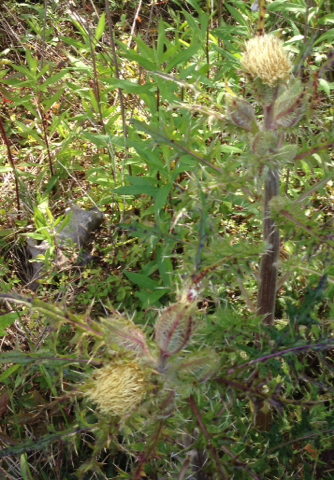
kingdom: Plantae
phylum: Tracheophyta
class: Magnoliopsida
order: Asterales
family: Asteraceae
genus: Cirsium
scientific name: Cirsium horridulum
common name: Bristly thistle
